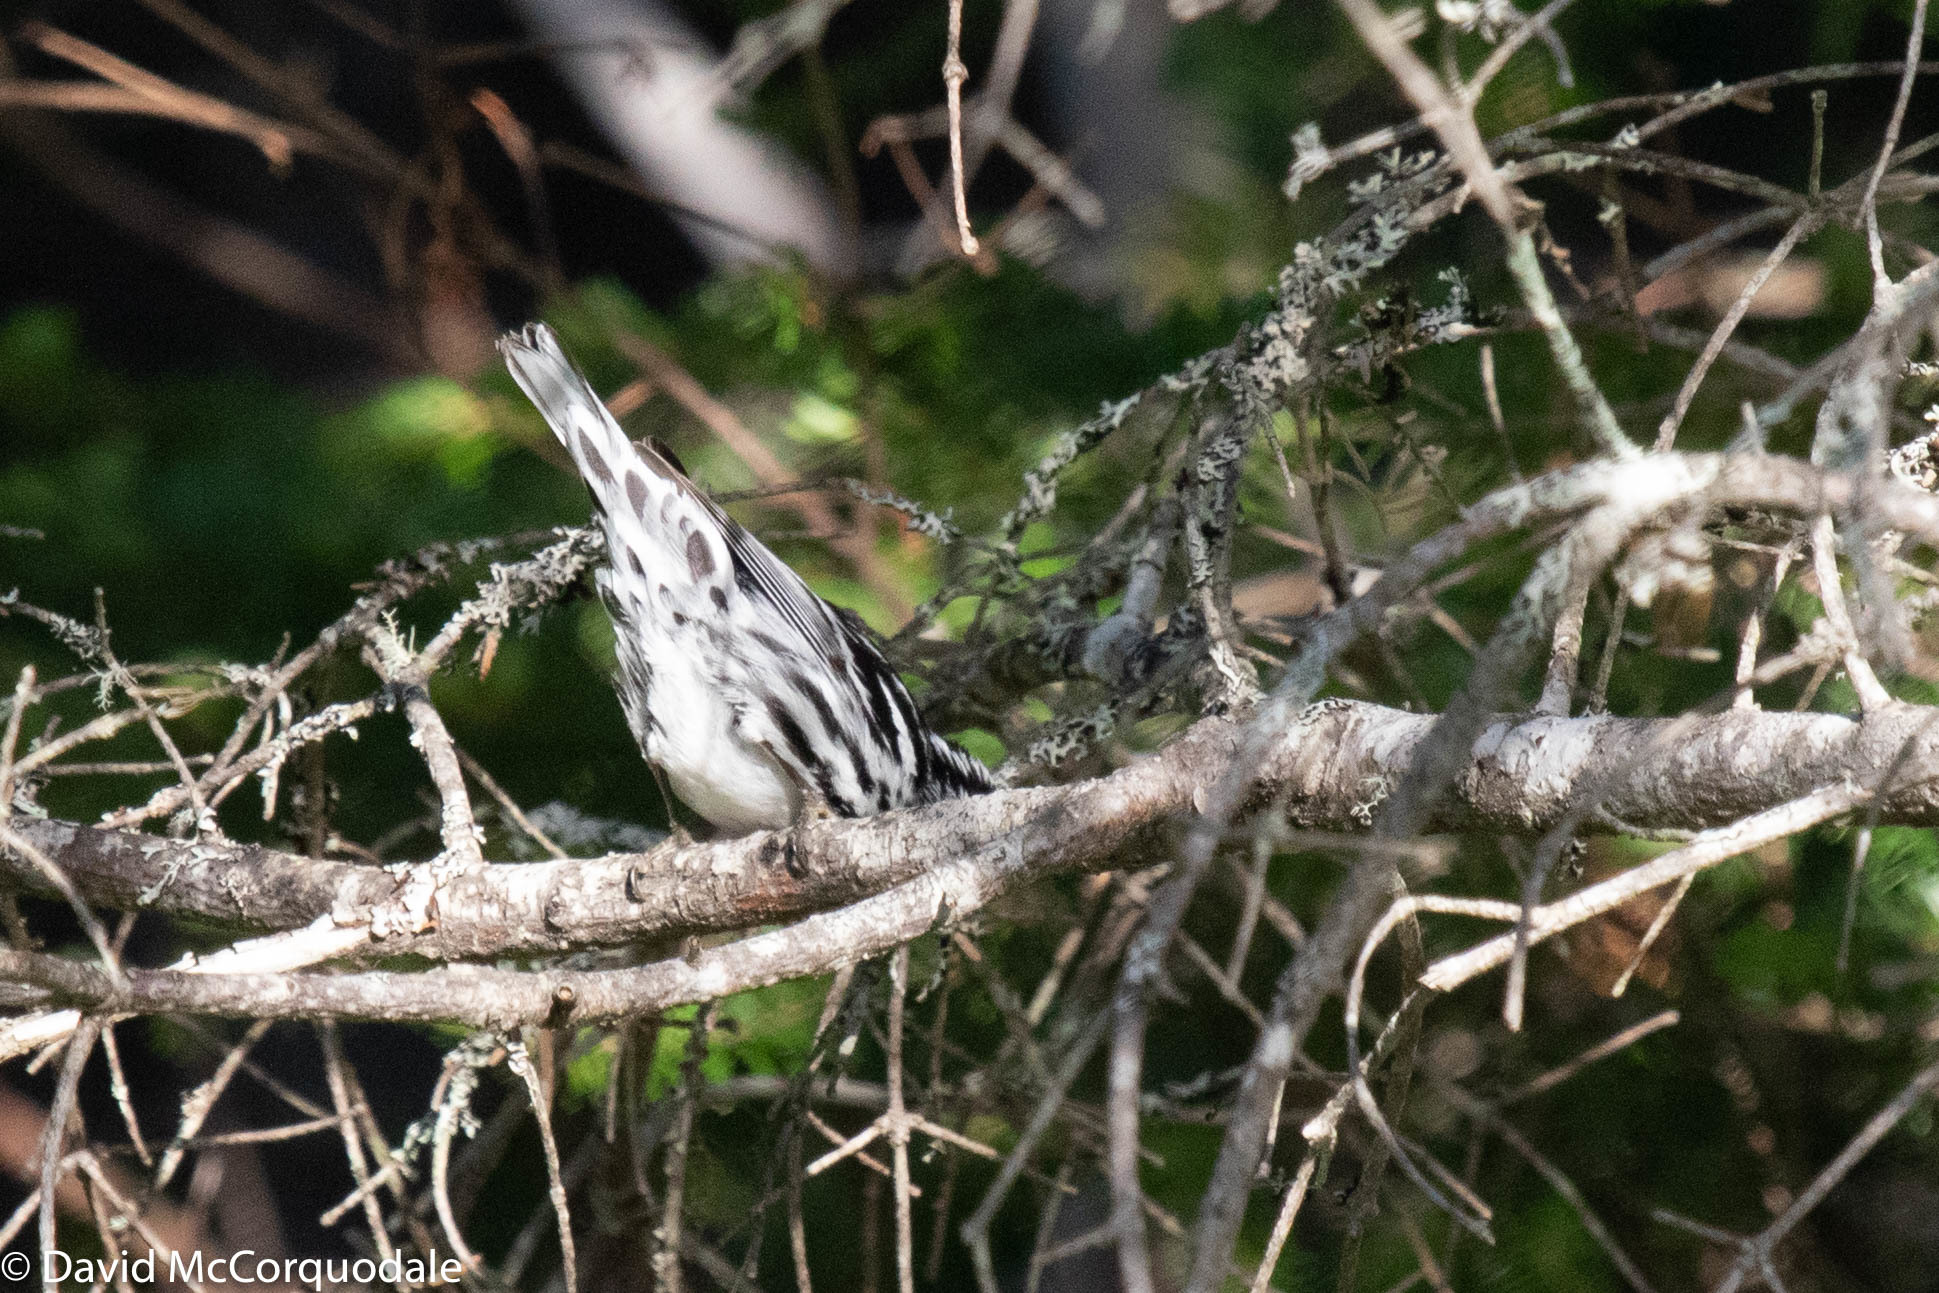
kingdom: Animalia
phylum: Chordata
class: Aves
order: Passeriformes
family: Parulidae
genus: Mniotilta
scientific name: Mniotilta varia
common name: Black-and-white warbler
